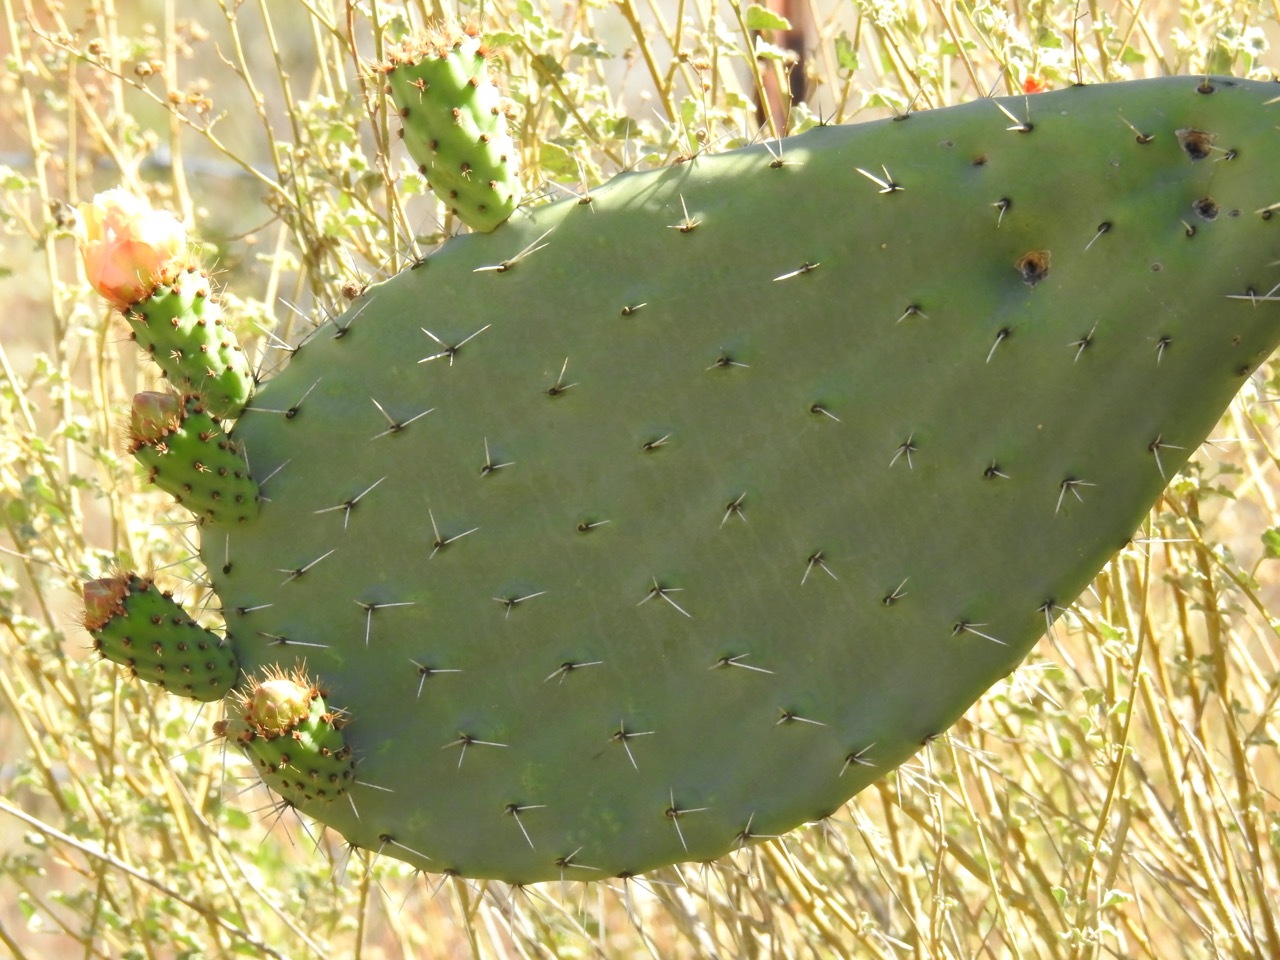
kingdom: Plantae
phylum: Tracheophyta
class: Magnoliopsida
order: Caryophyllales
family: Cactaceae
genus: Opuntia
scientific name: Opuntia ficus-indica
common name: Barbary fig
